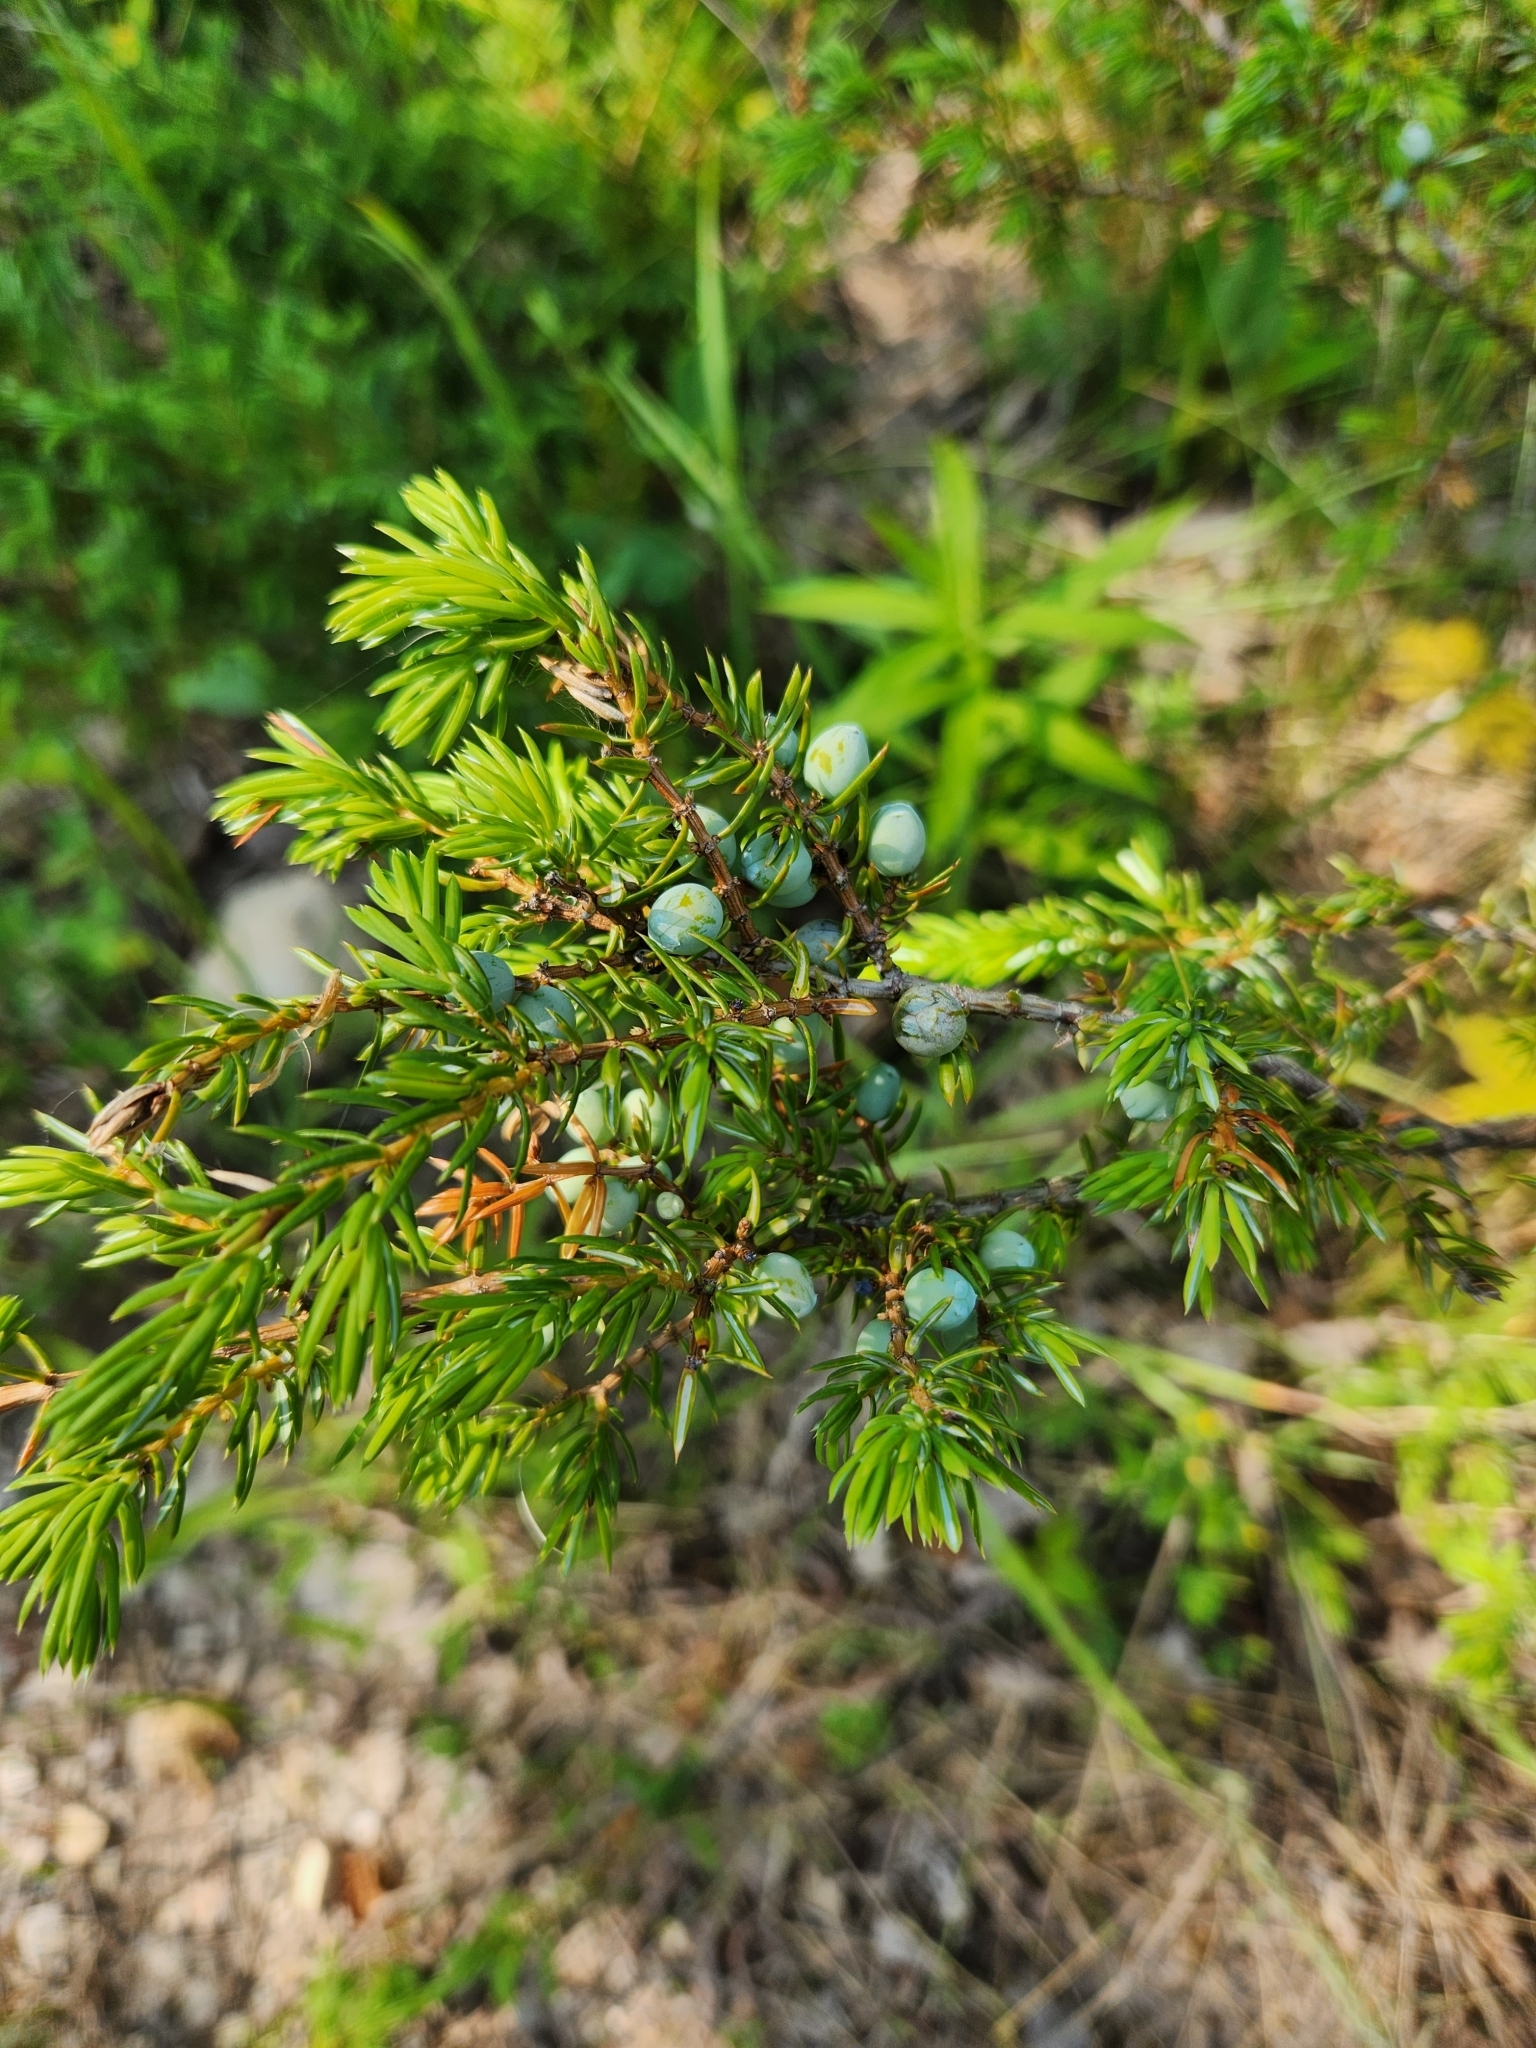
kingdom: Plantae
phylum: Tracheophyta
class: Pinopsida
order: Pinales
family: Cupressaceae
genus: Juniperus
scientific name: Juniperus communis
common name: Common juniper
